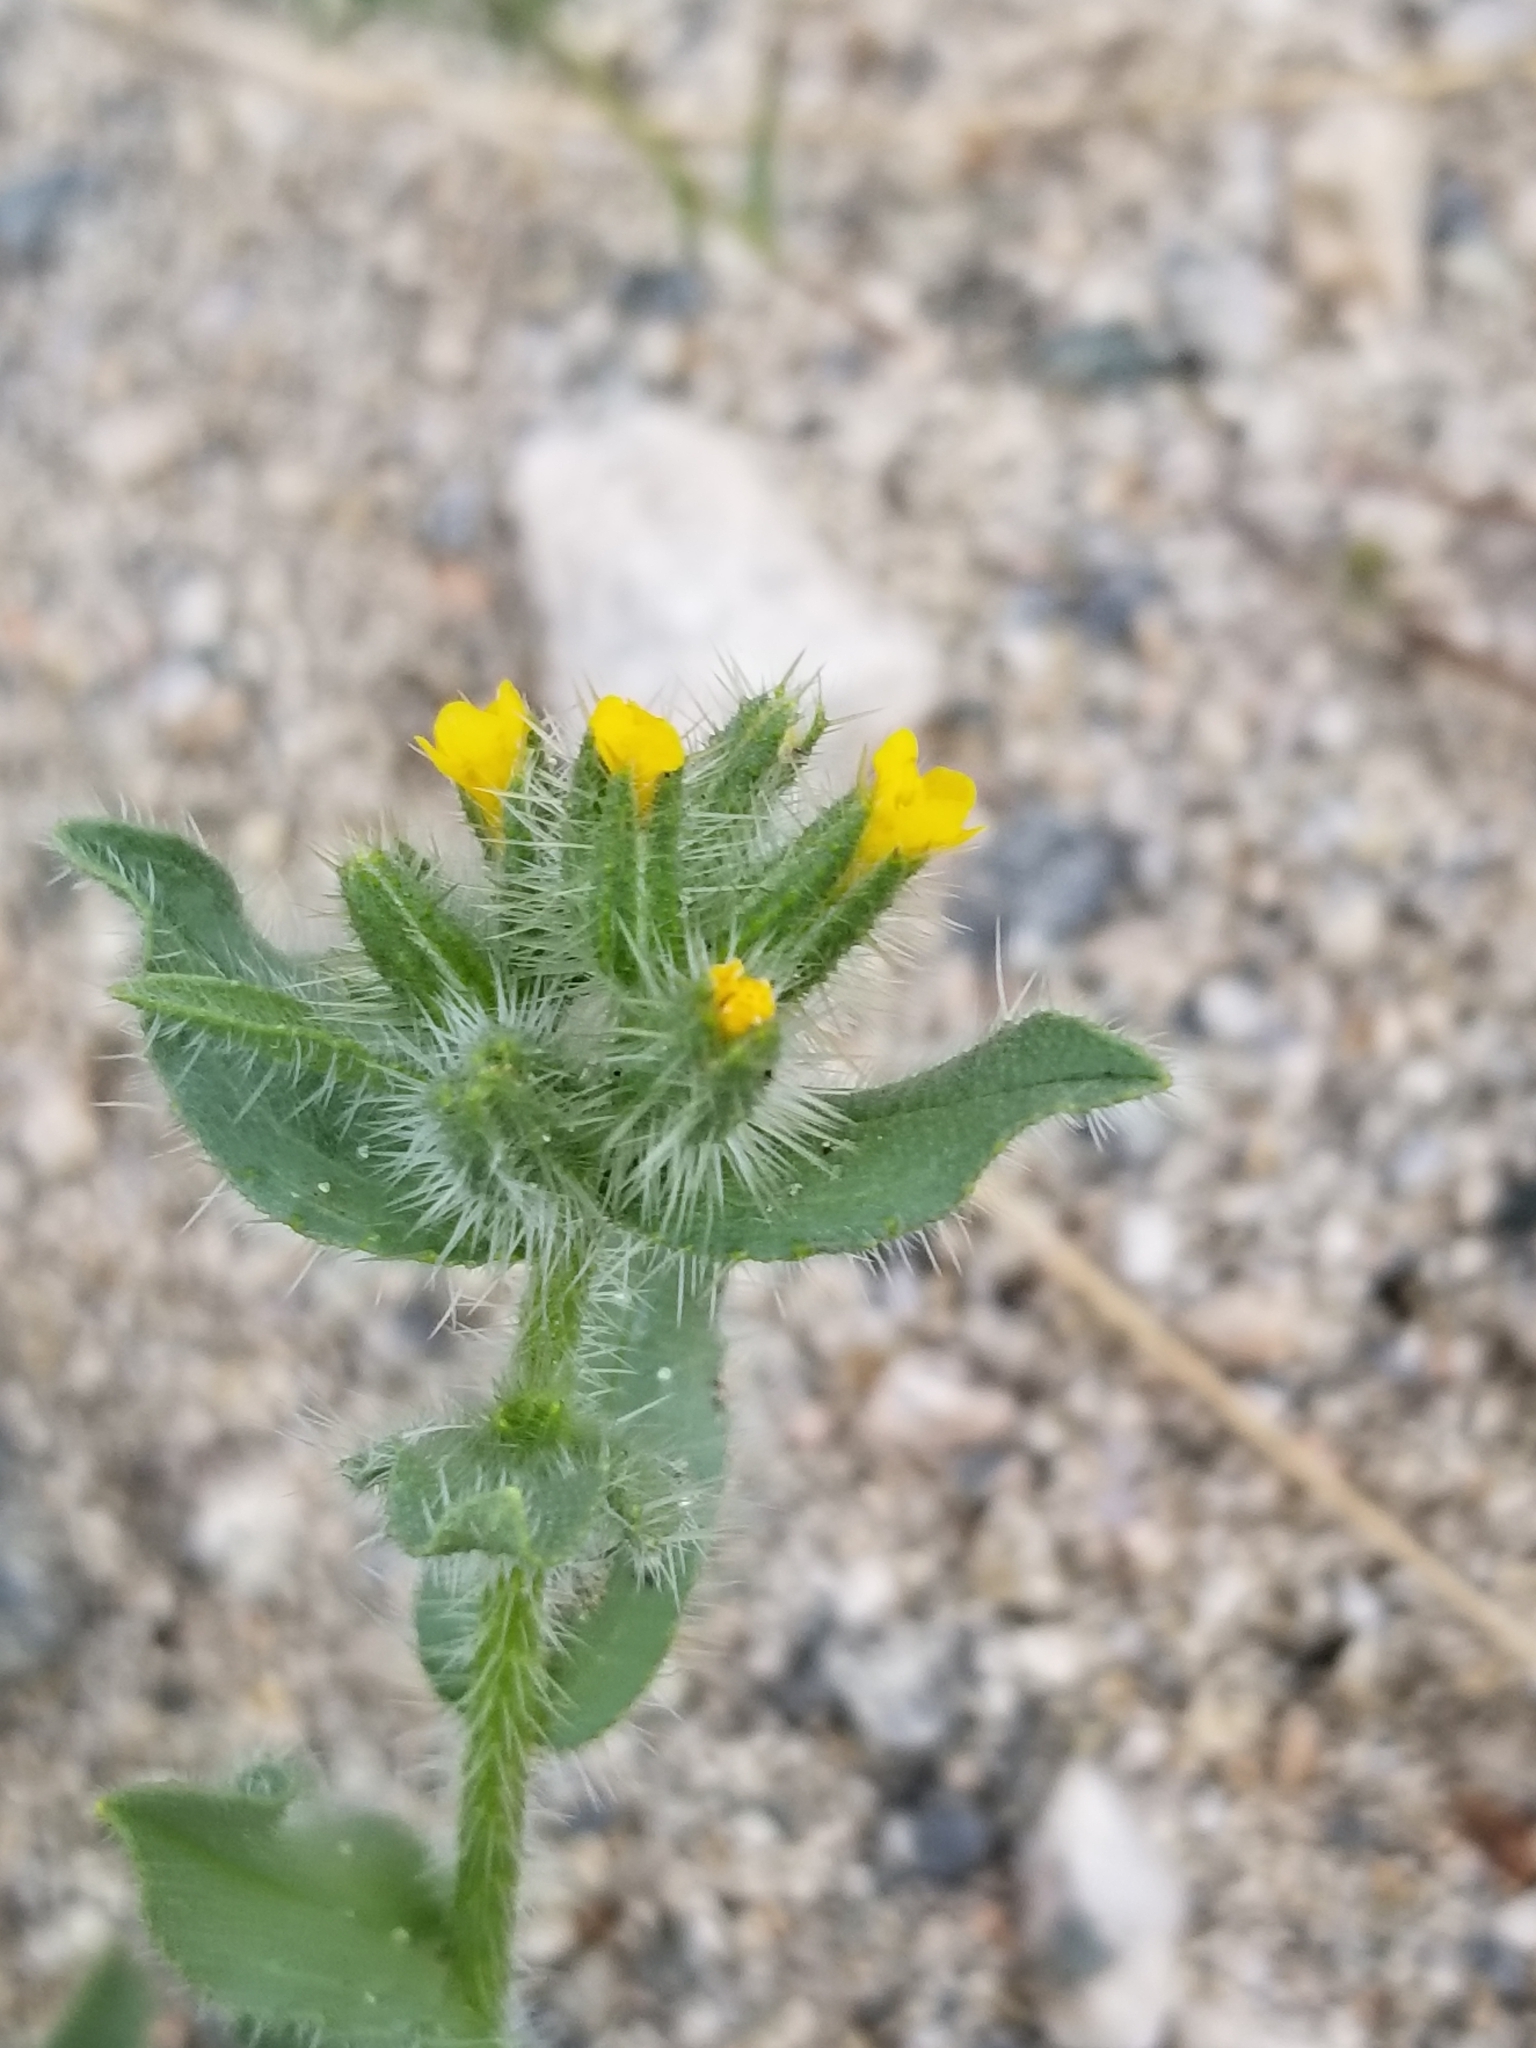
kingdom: Plantae
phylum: Tracheophyta
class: Magnoliopsida
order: Boraginales
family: Boraginaceae
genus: Amsinckia
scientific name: Amsinckia tessellata
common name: Tessellate fiddleneck
